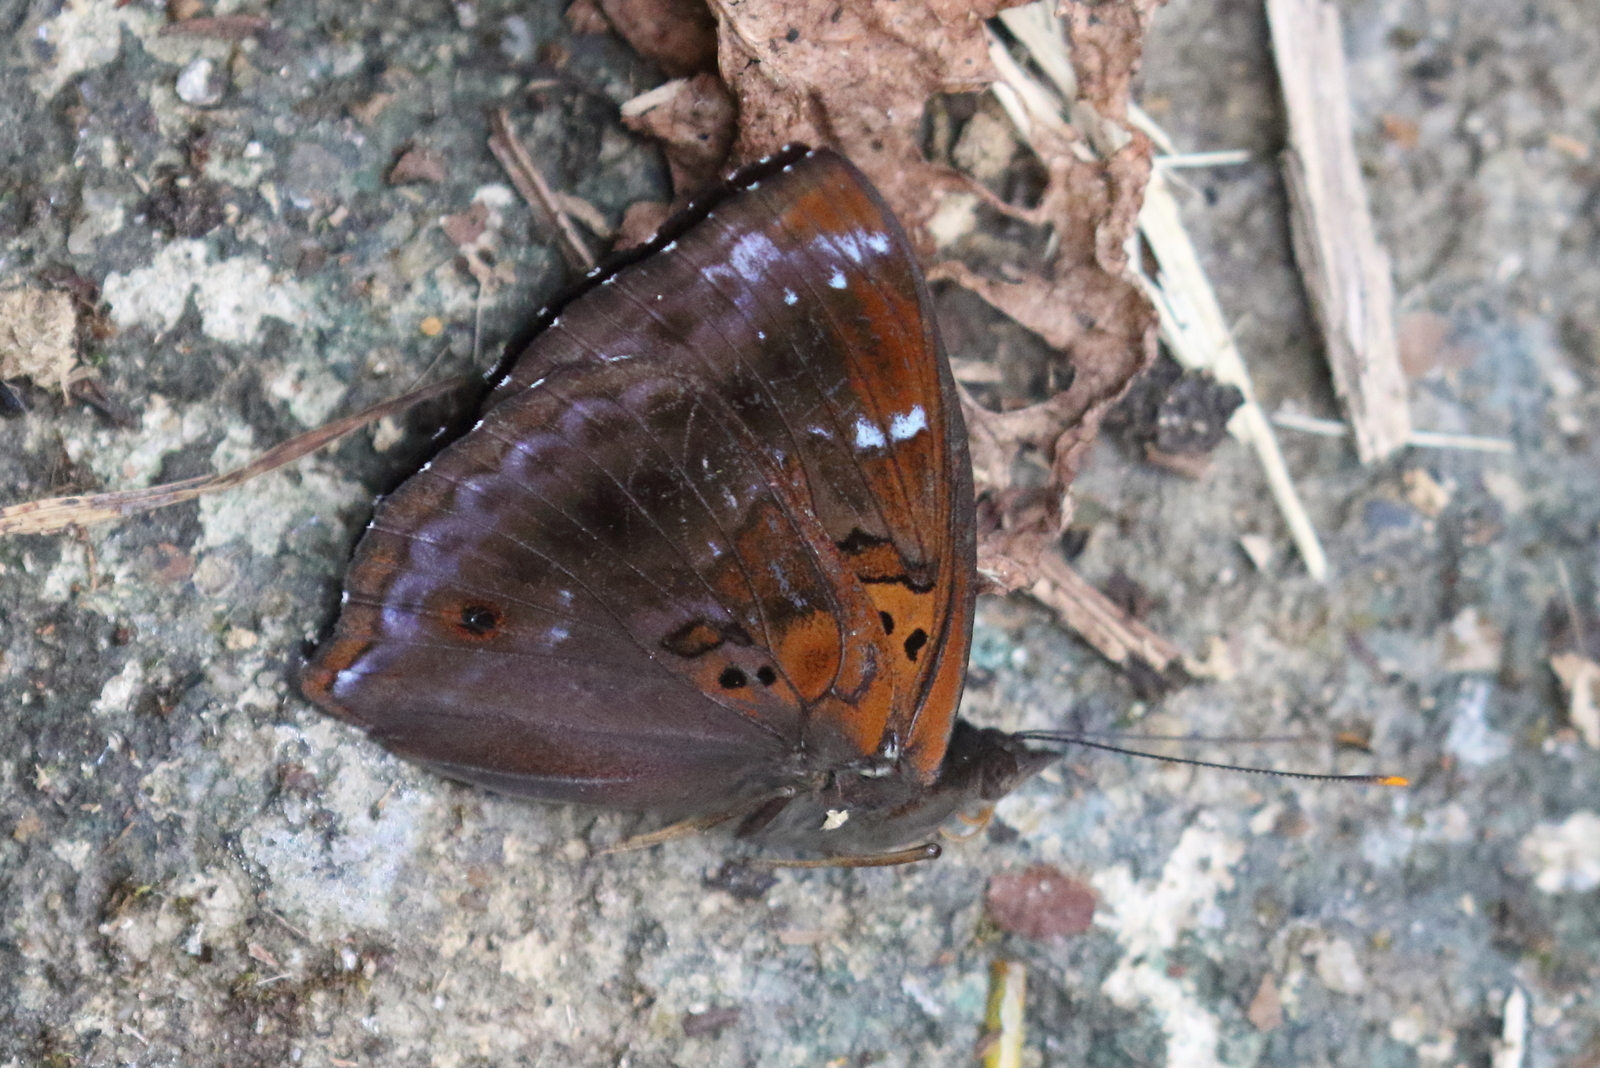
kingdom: Animalia
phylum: Arthropoda
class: Insecta
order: Lepidoptera
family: Nymphalidae
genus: Apatura
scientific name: Apatura Rohana spec
